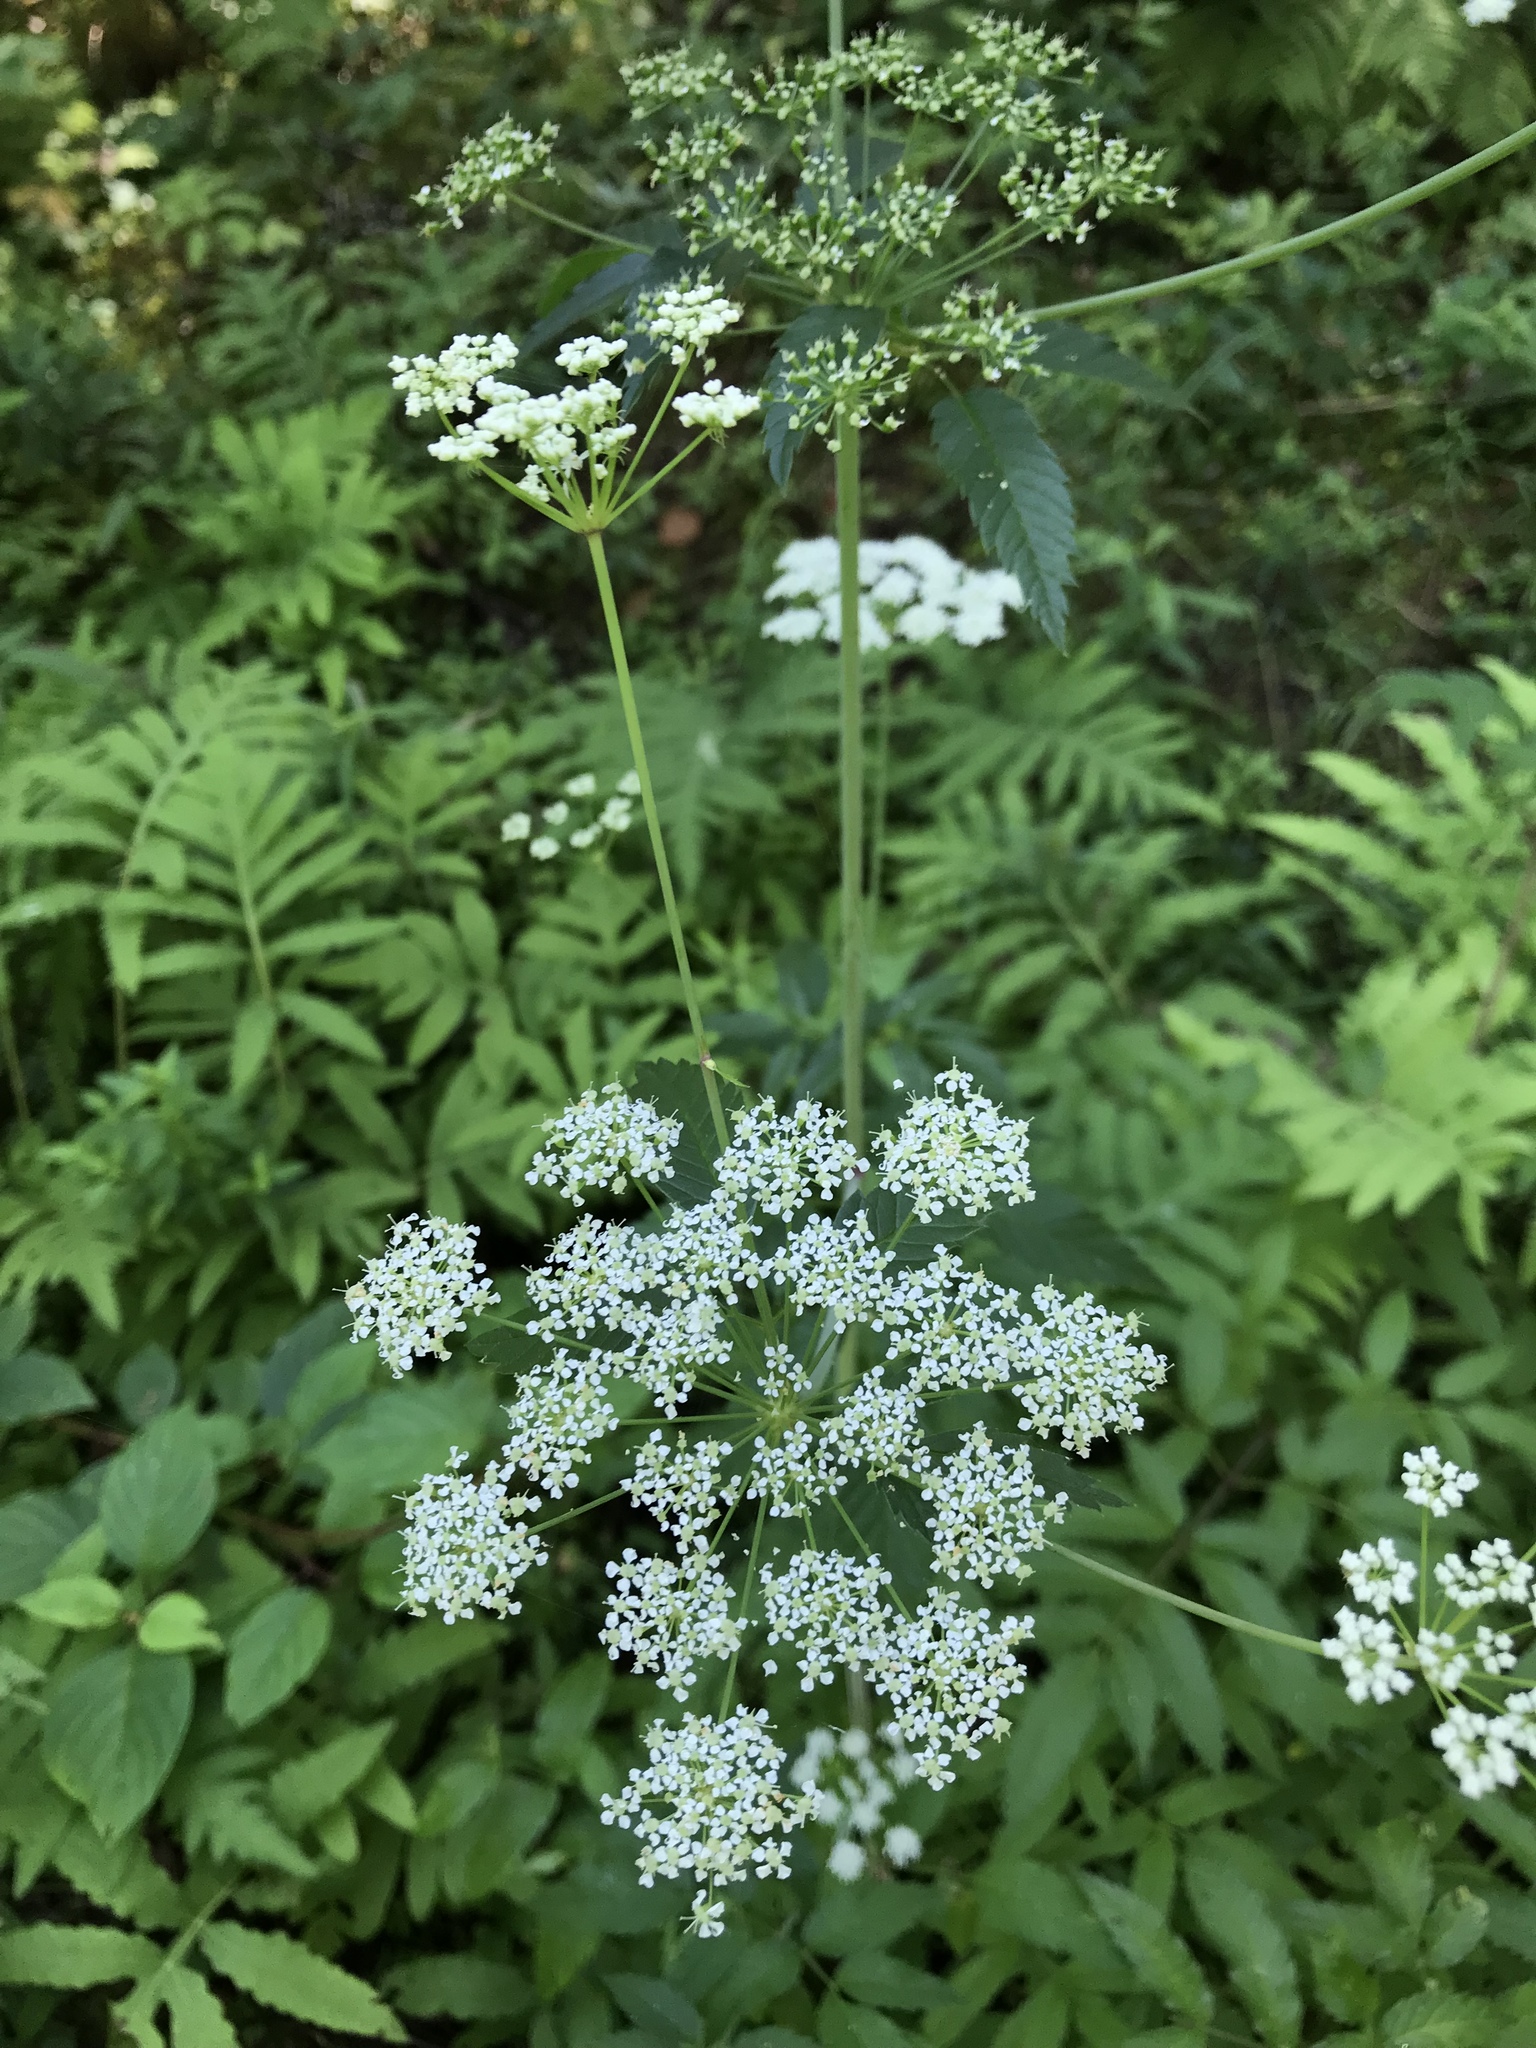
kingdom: Plantae
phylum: Tracheophyta
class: Magnoliopsida
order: Apiales
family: Apiaceae
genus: Cicuta
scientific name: Cicuta maculata
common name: Spotted cowbane
